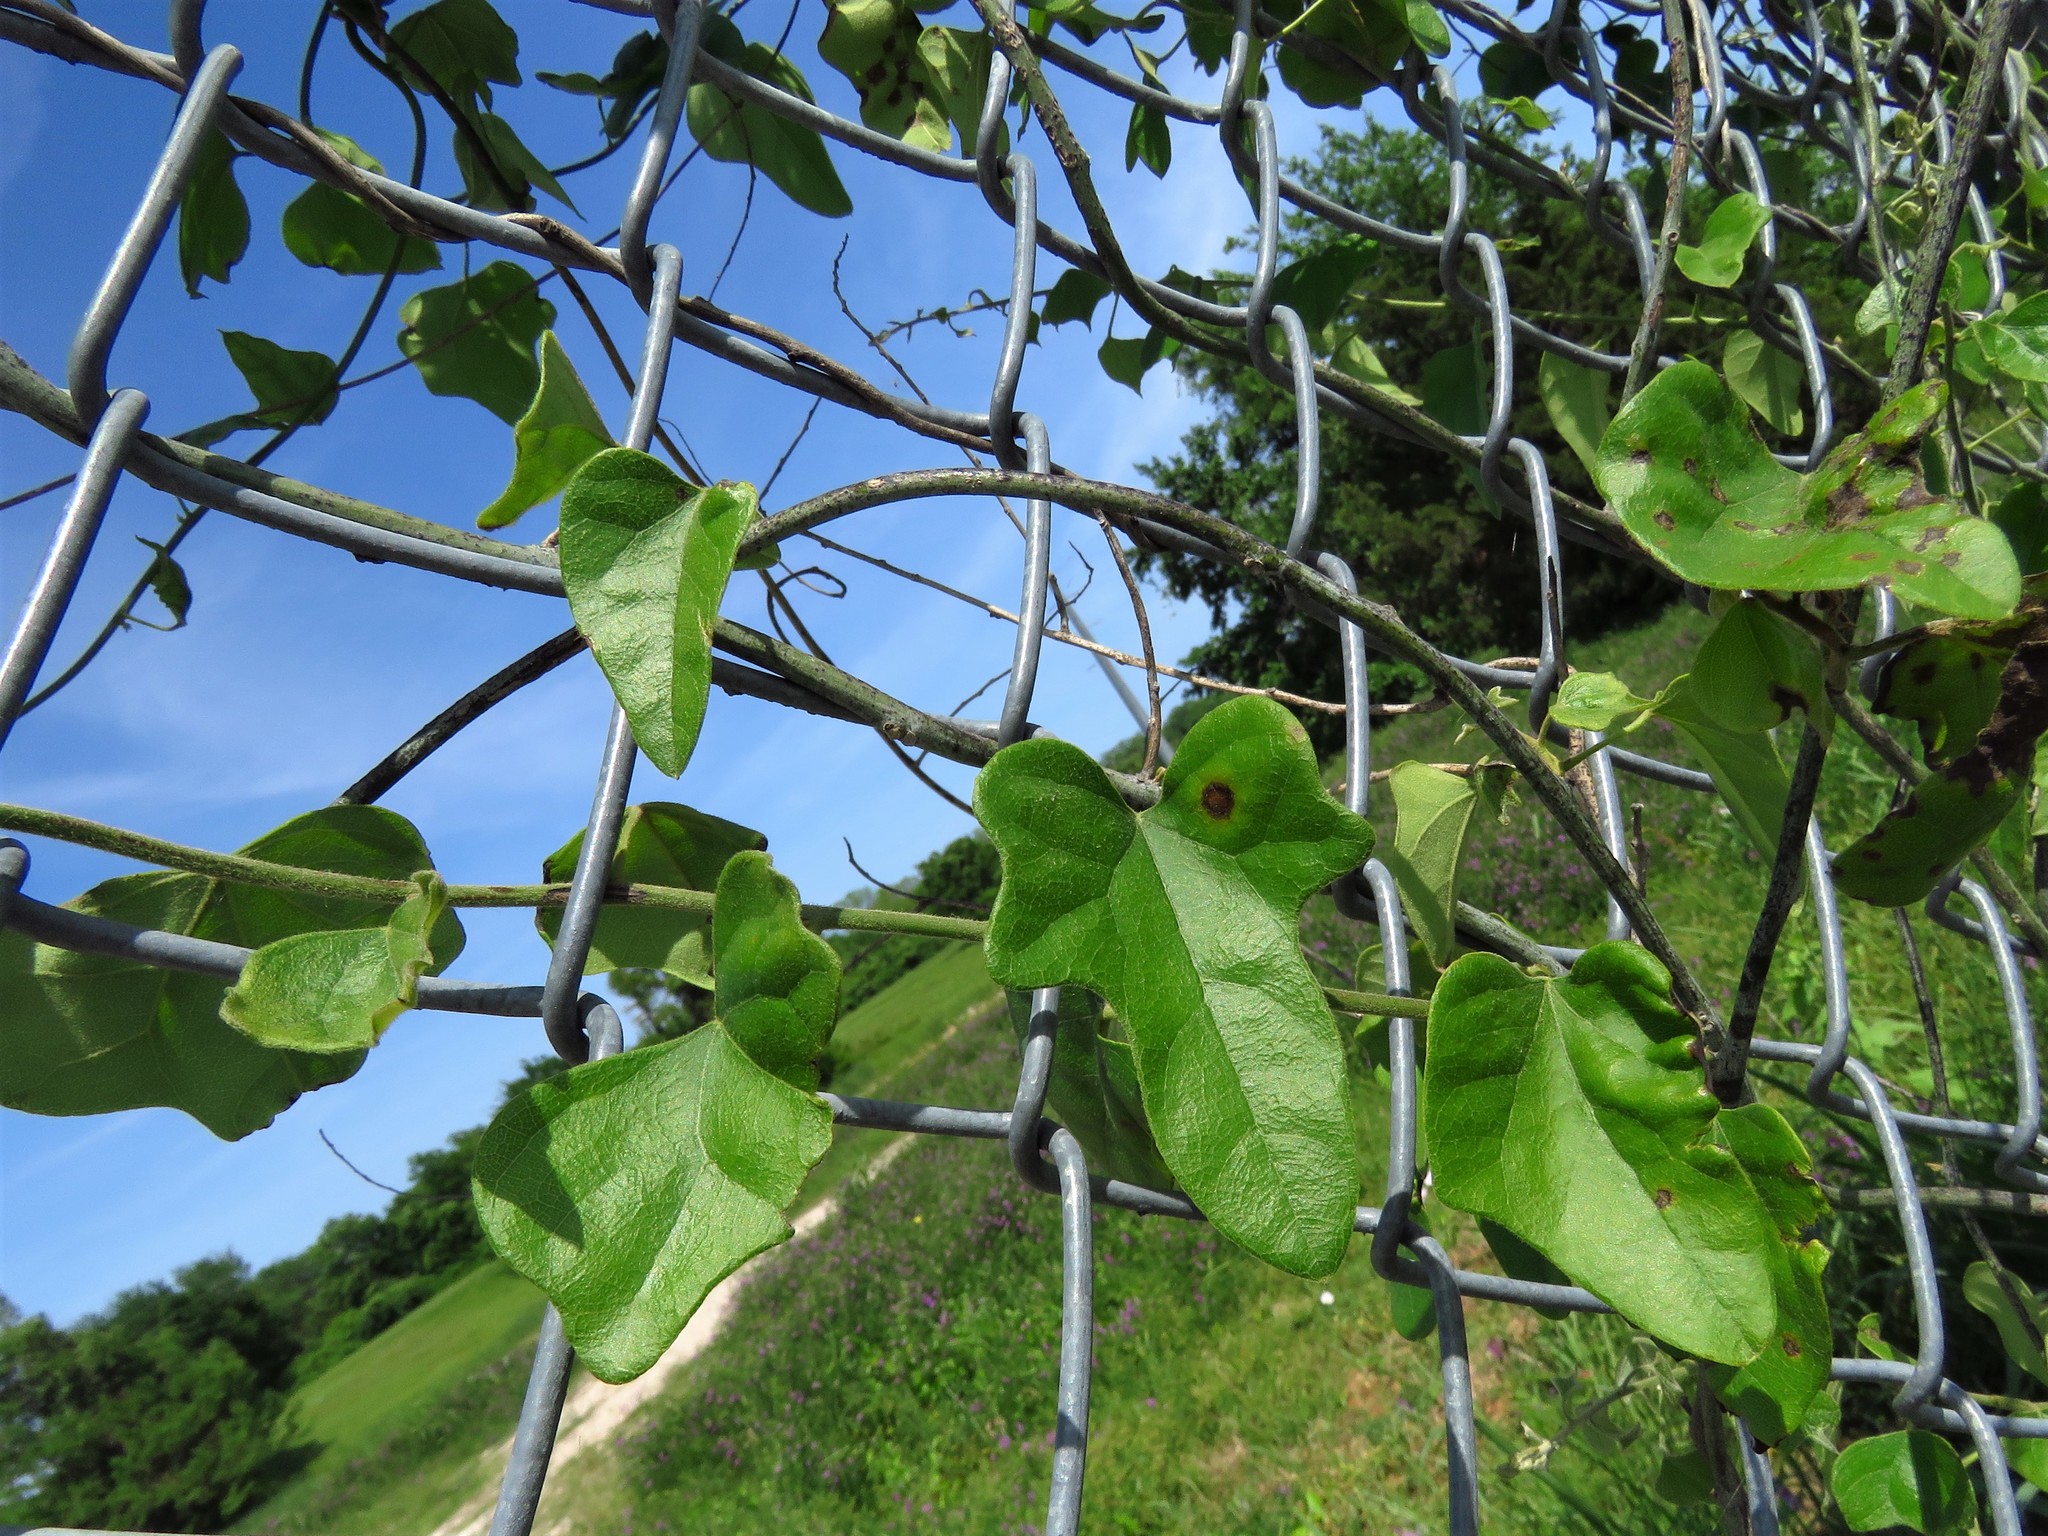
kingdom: Plantae
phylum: Tracheophyta
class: Magnoliopsida
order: Ranunculales
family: Menispermaceae
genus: Cocculus
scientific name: Cocculus carolinus
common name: Carolina moonseed
